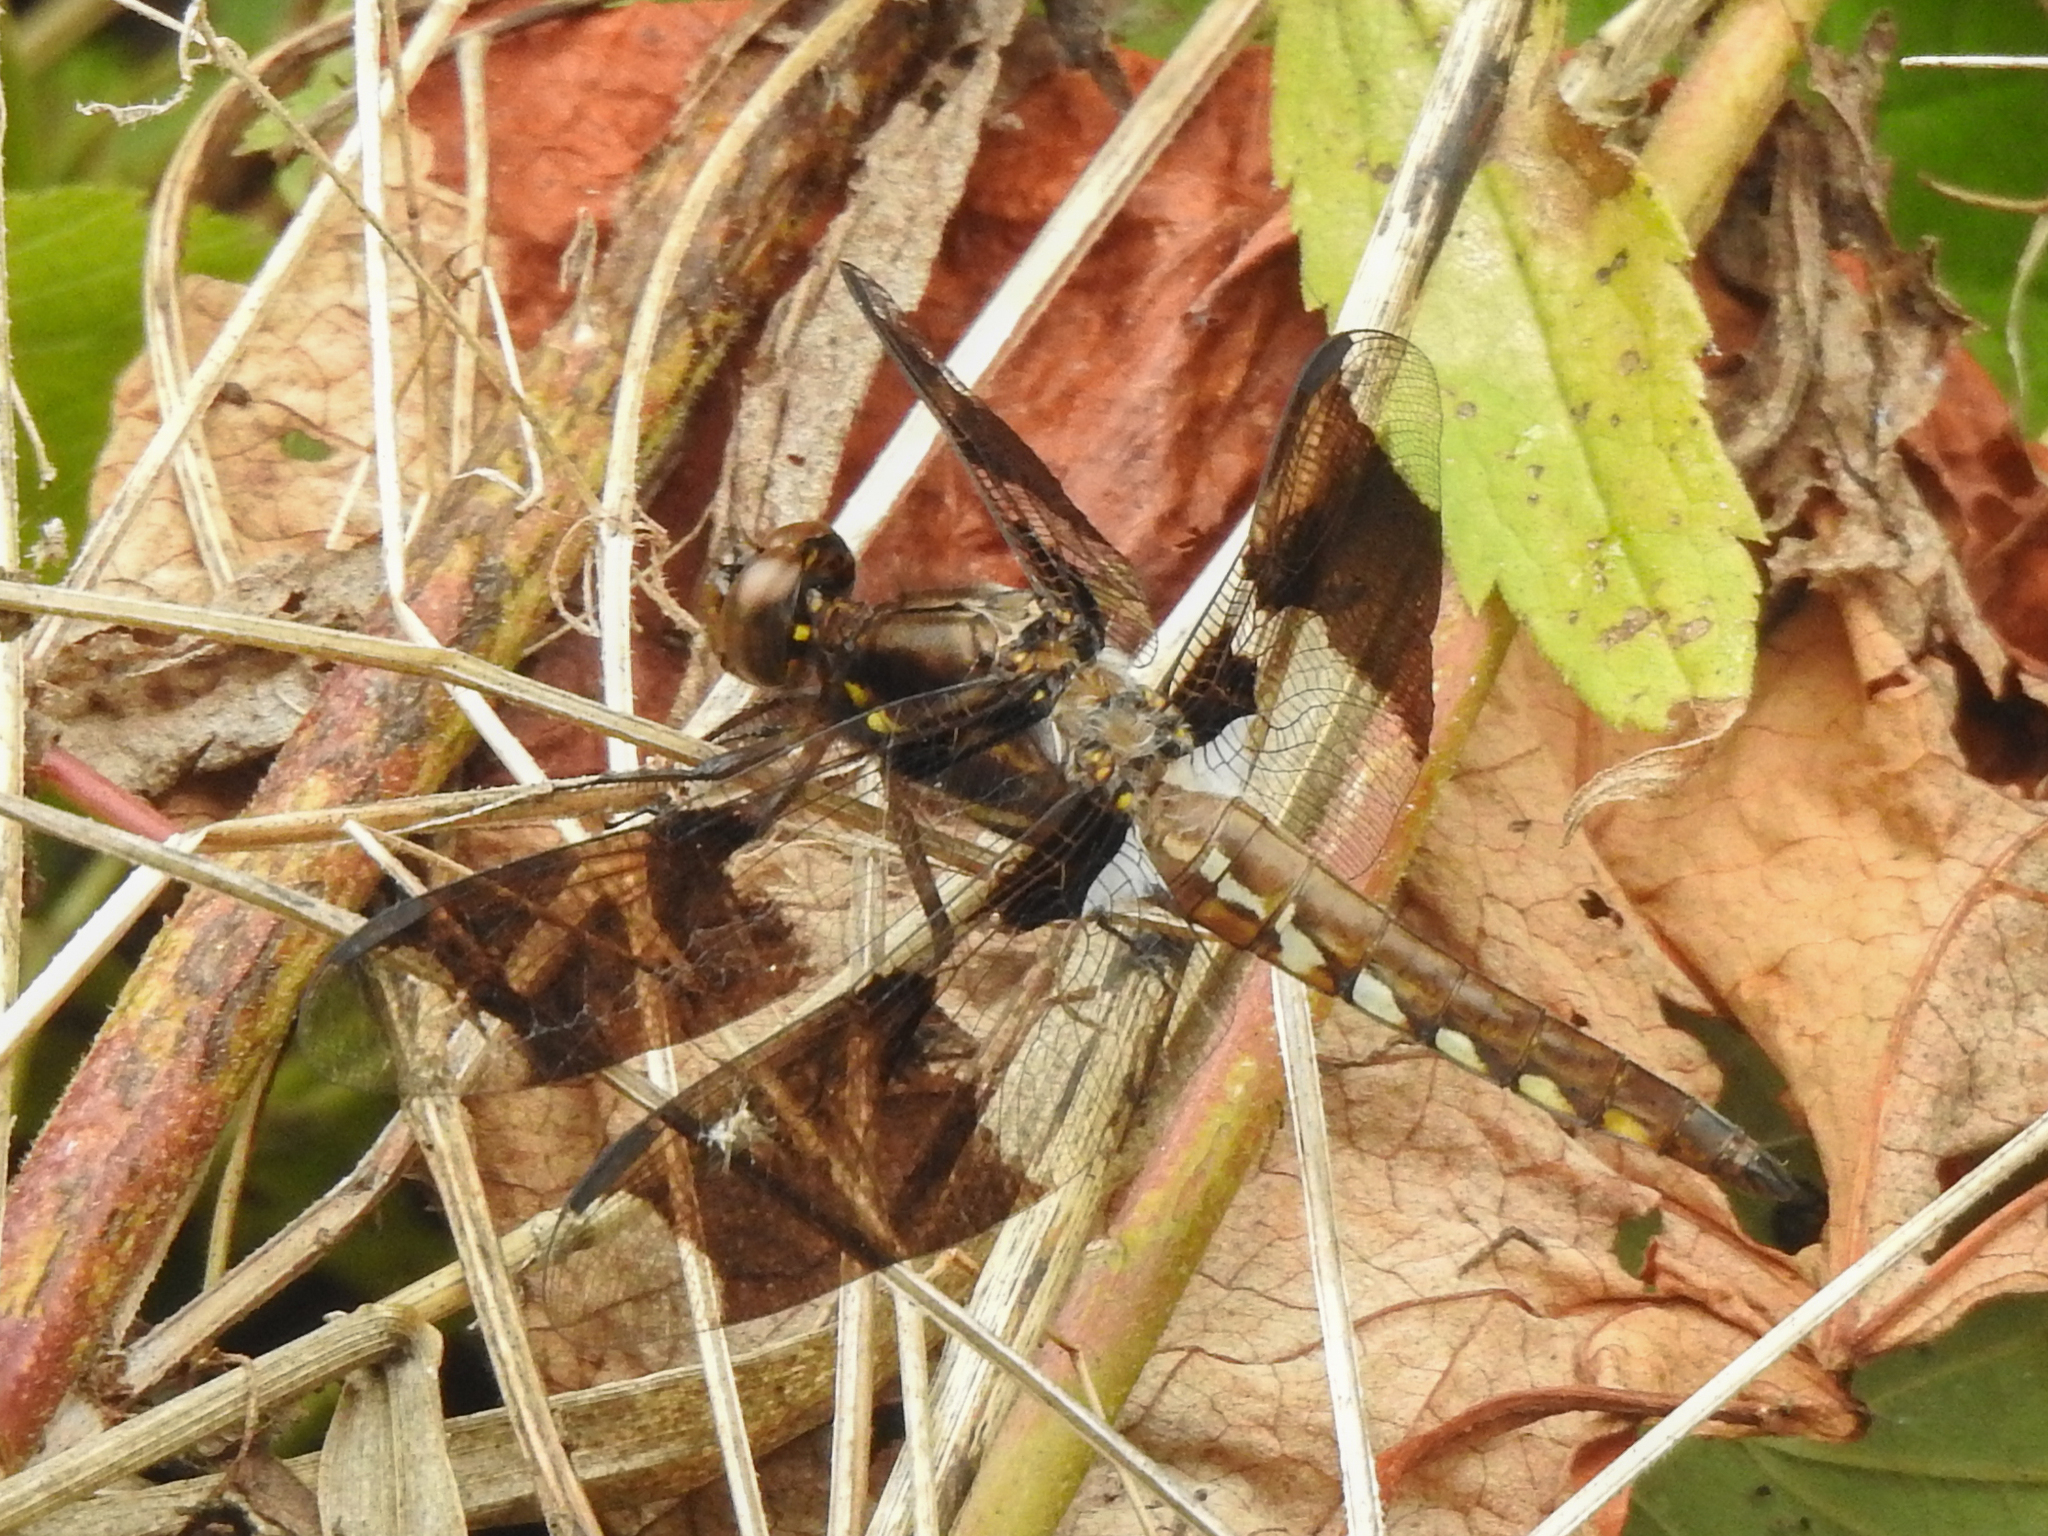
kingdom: Animalia
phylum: Arthropoda
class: Insecta
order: Odonata
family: Libellulidae
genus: Plathemis
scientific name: Plathemis lydia
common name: Common whitetail
